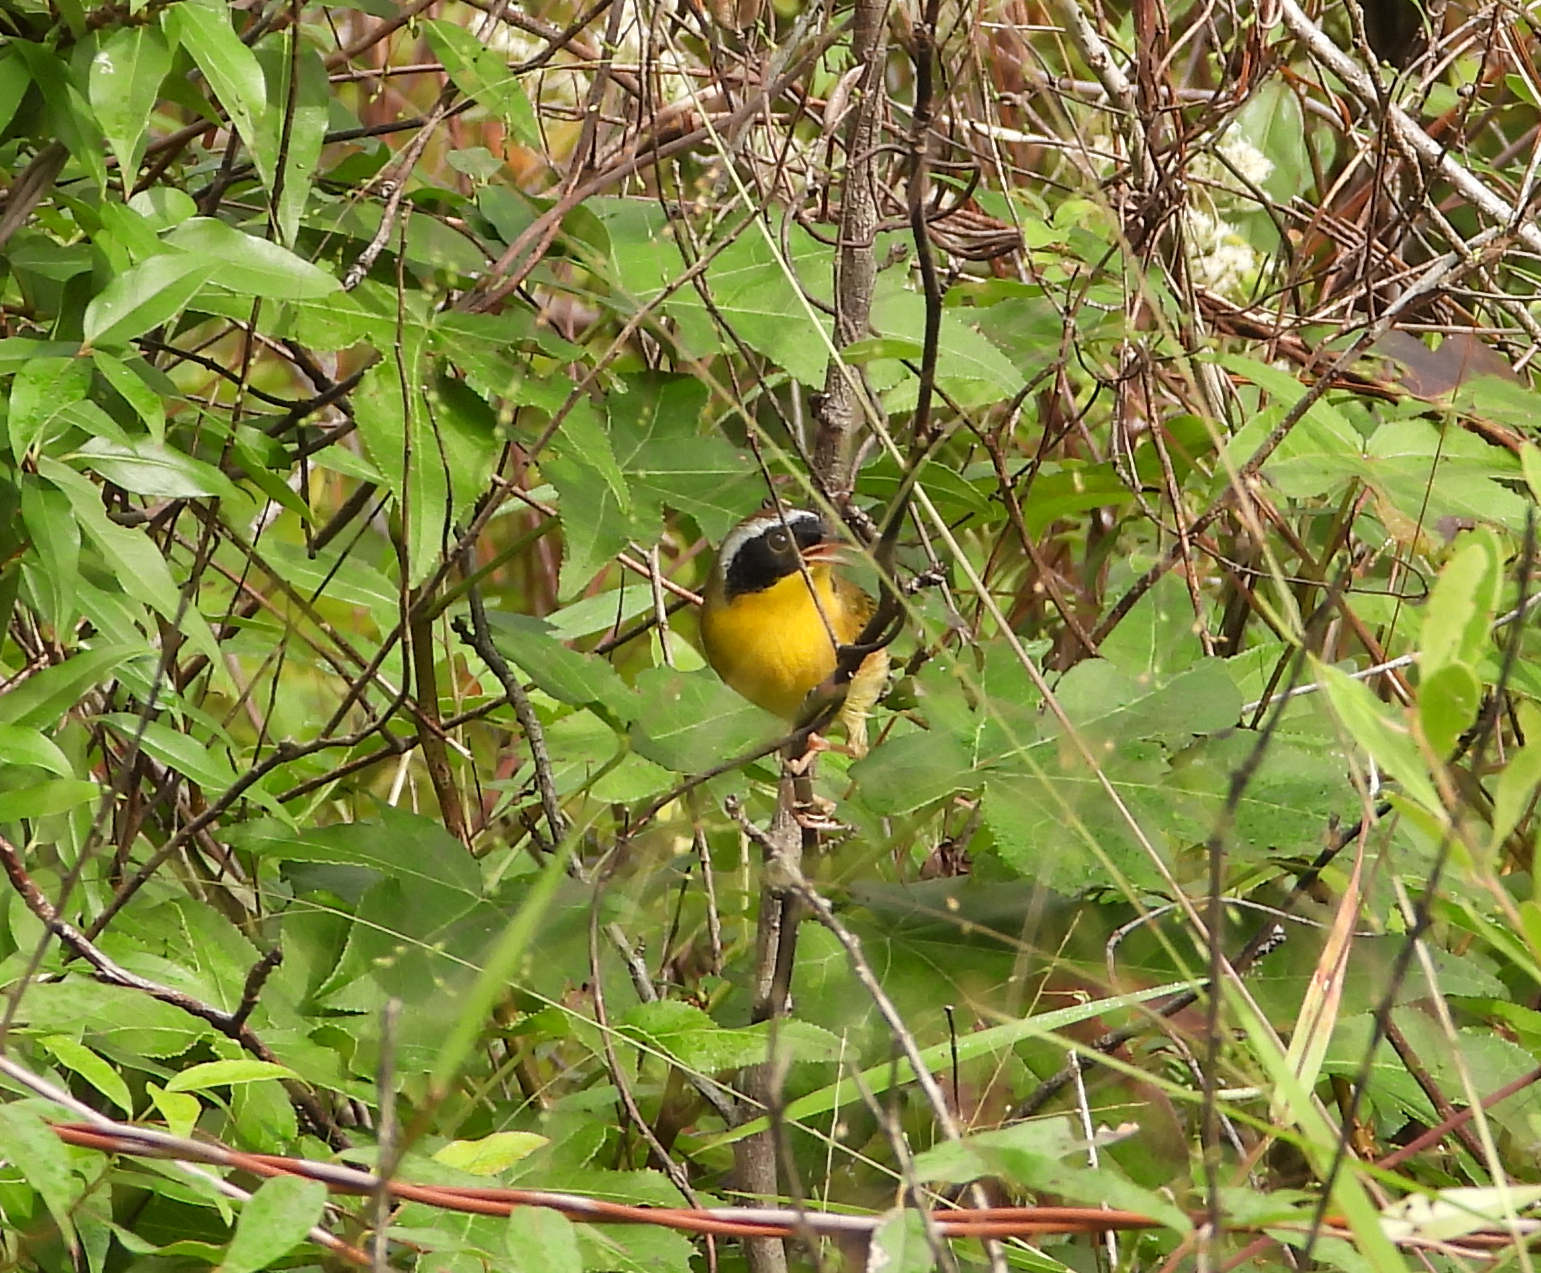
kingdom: Animalia
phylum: Chordata
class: Aves
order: Passeriformes
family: Parulidae
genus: Geothlypis
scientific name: Geothlypis trichas
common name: Common yellowthroat
